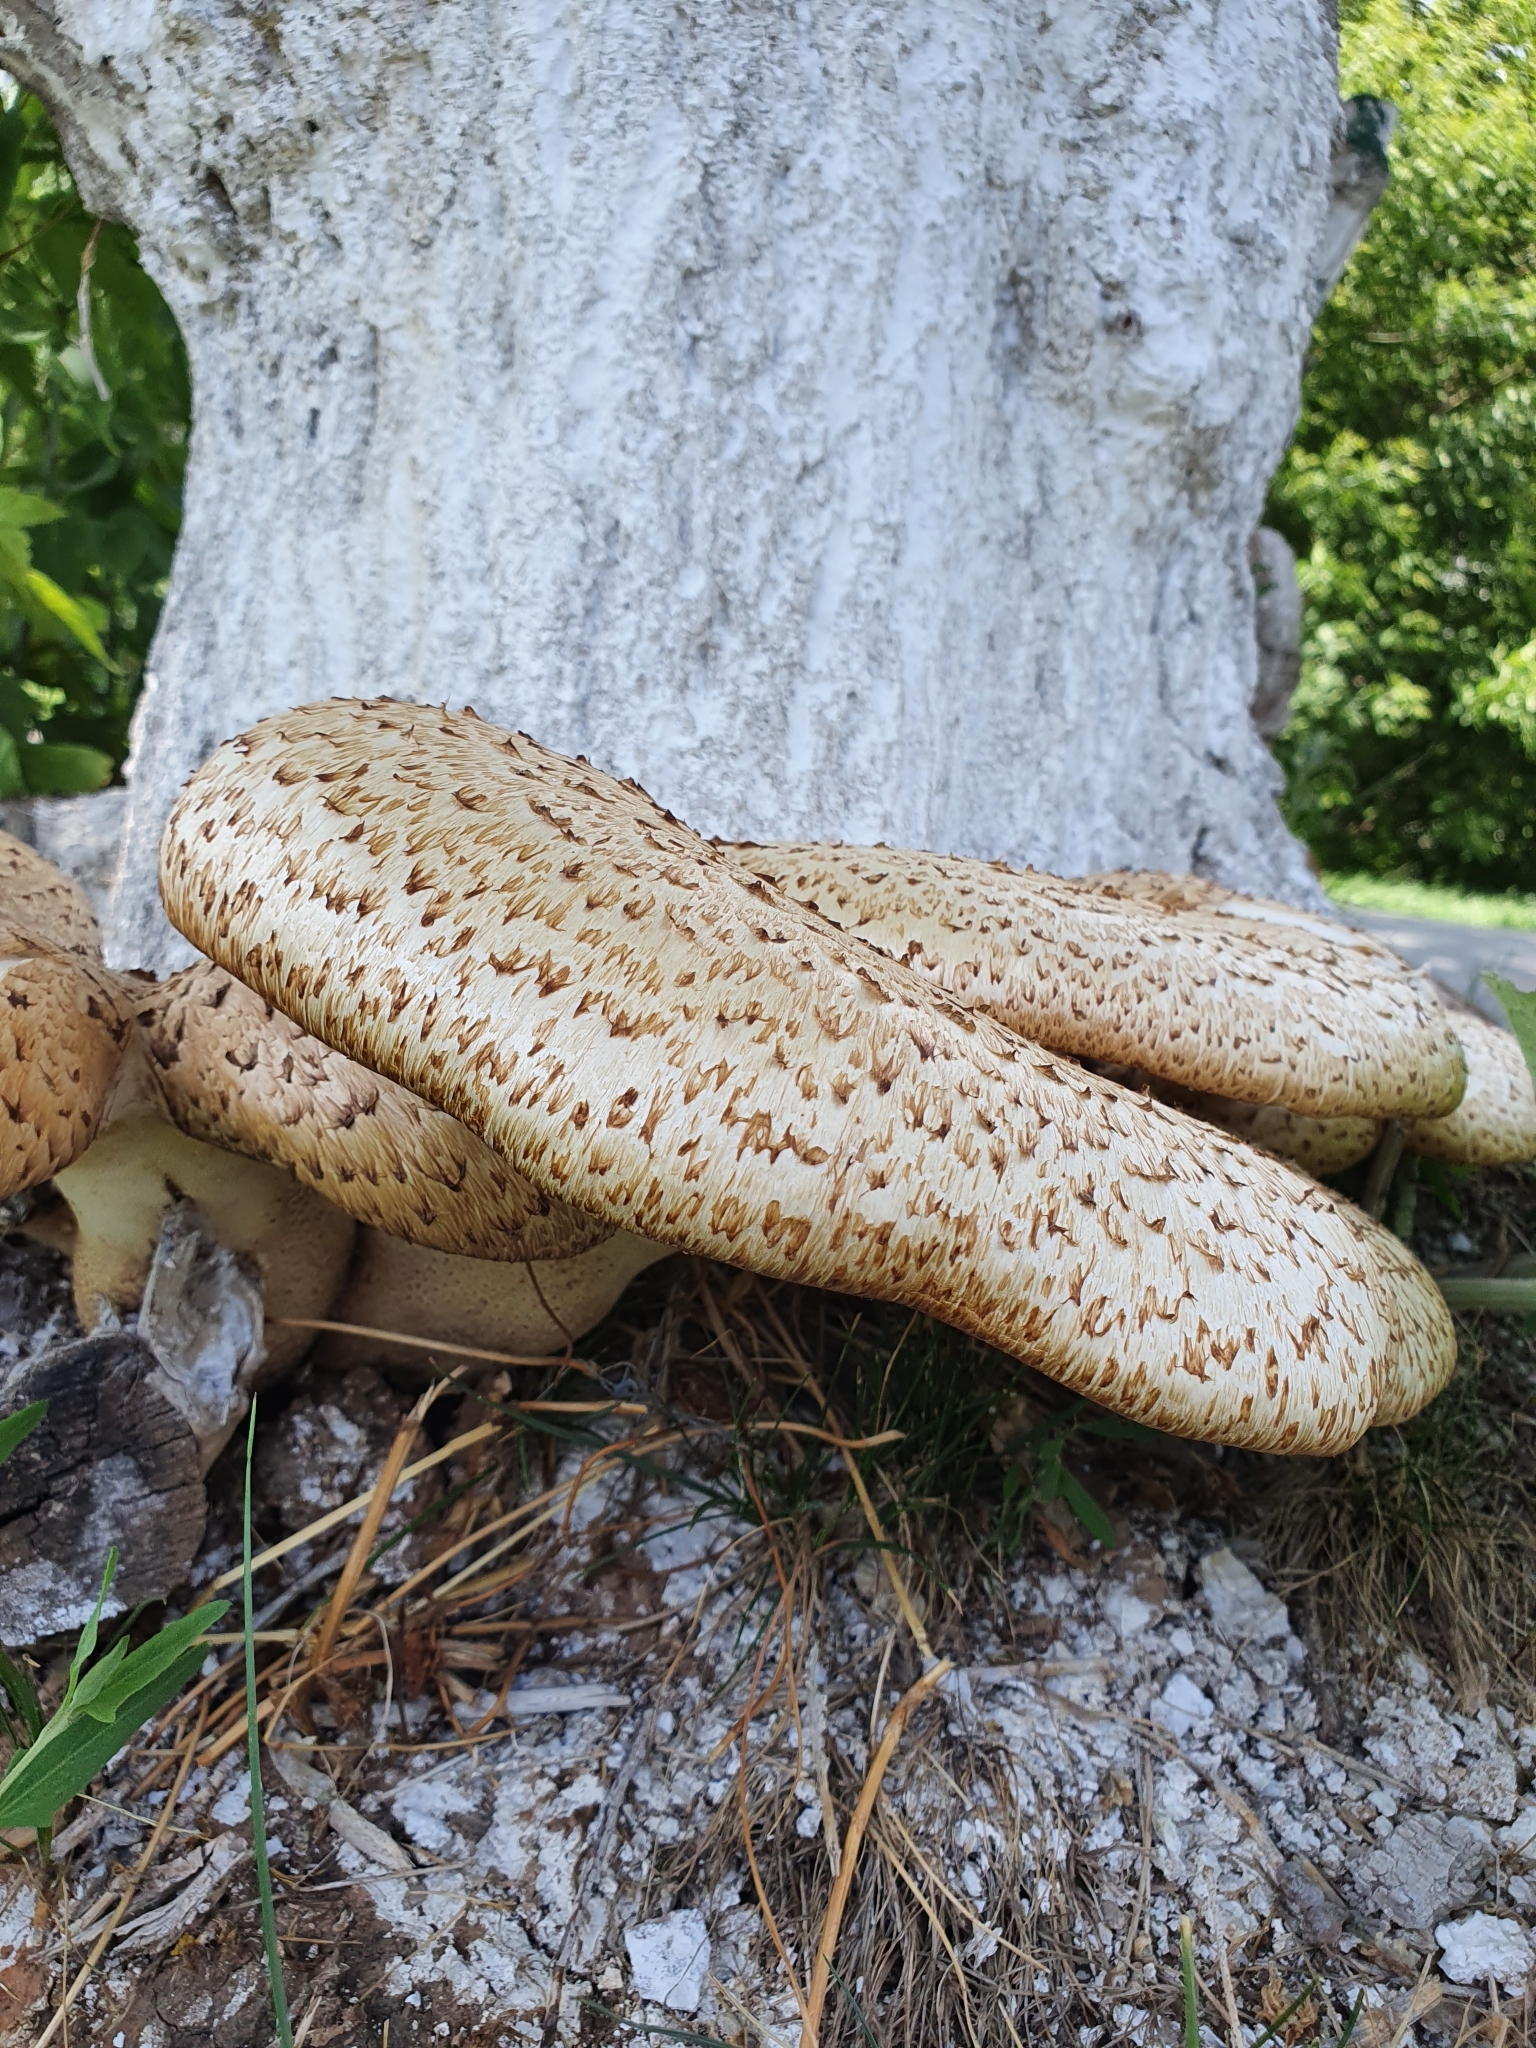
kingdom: Fungi
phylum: Basidiomycota
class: Agaricomycetes
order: Polyporales
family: Polyporaceae
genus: Cerioporus
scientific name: Cerioporus squamosus
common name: Dryad's saddle
